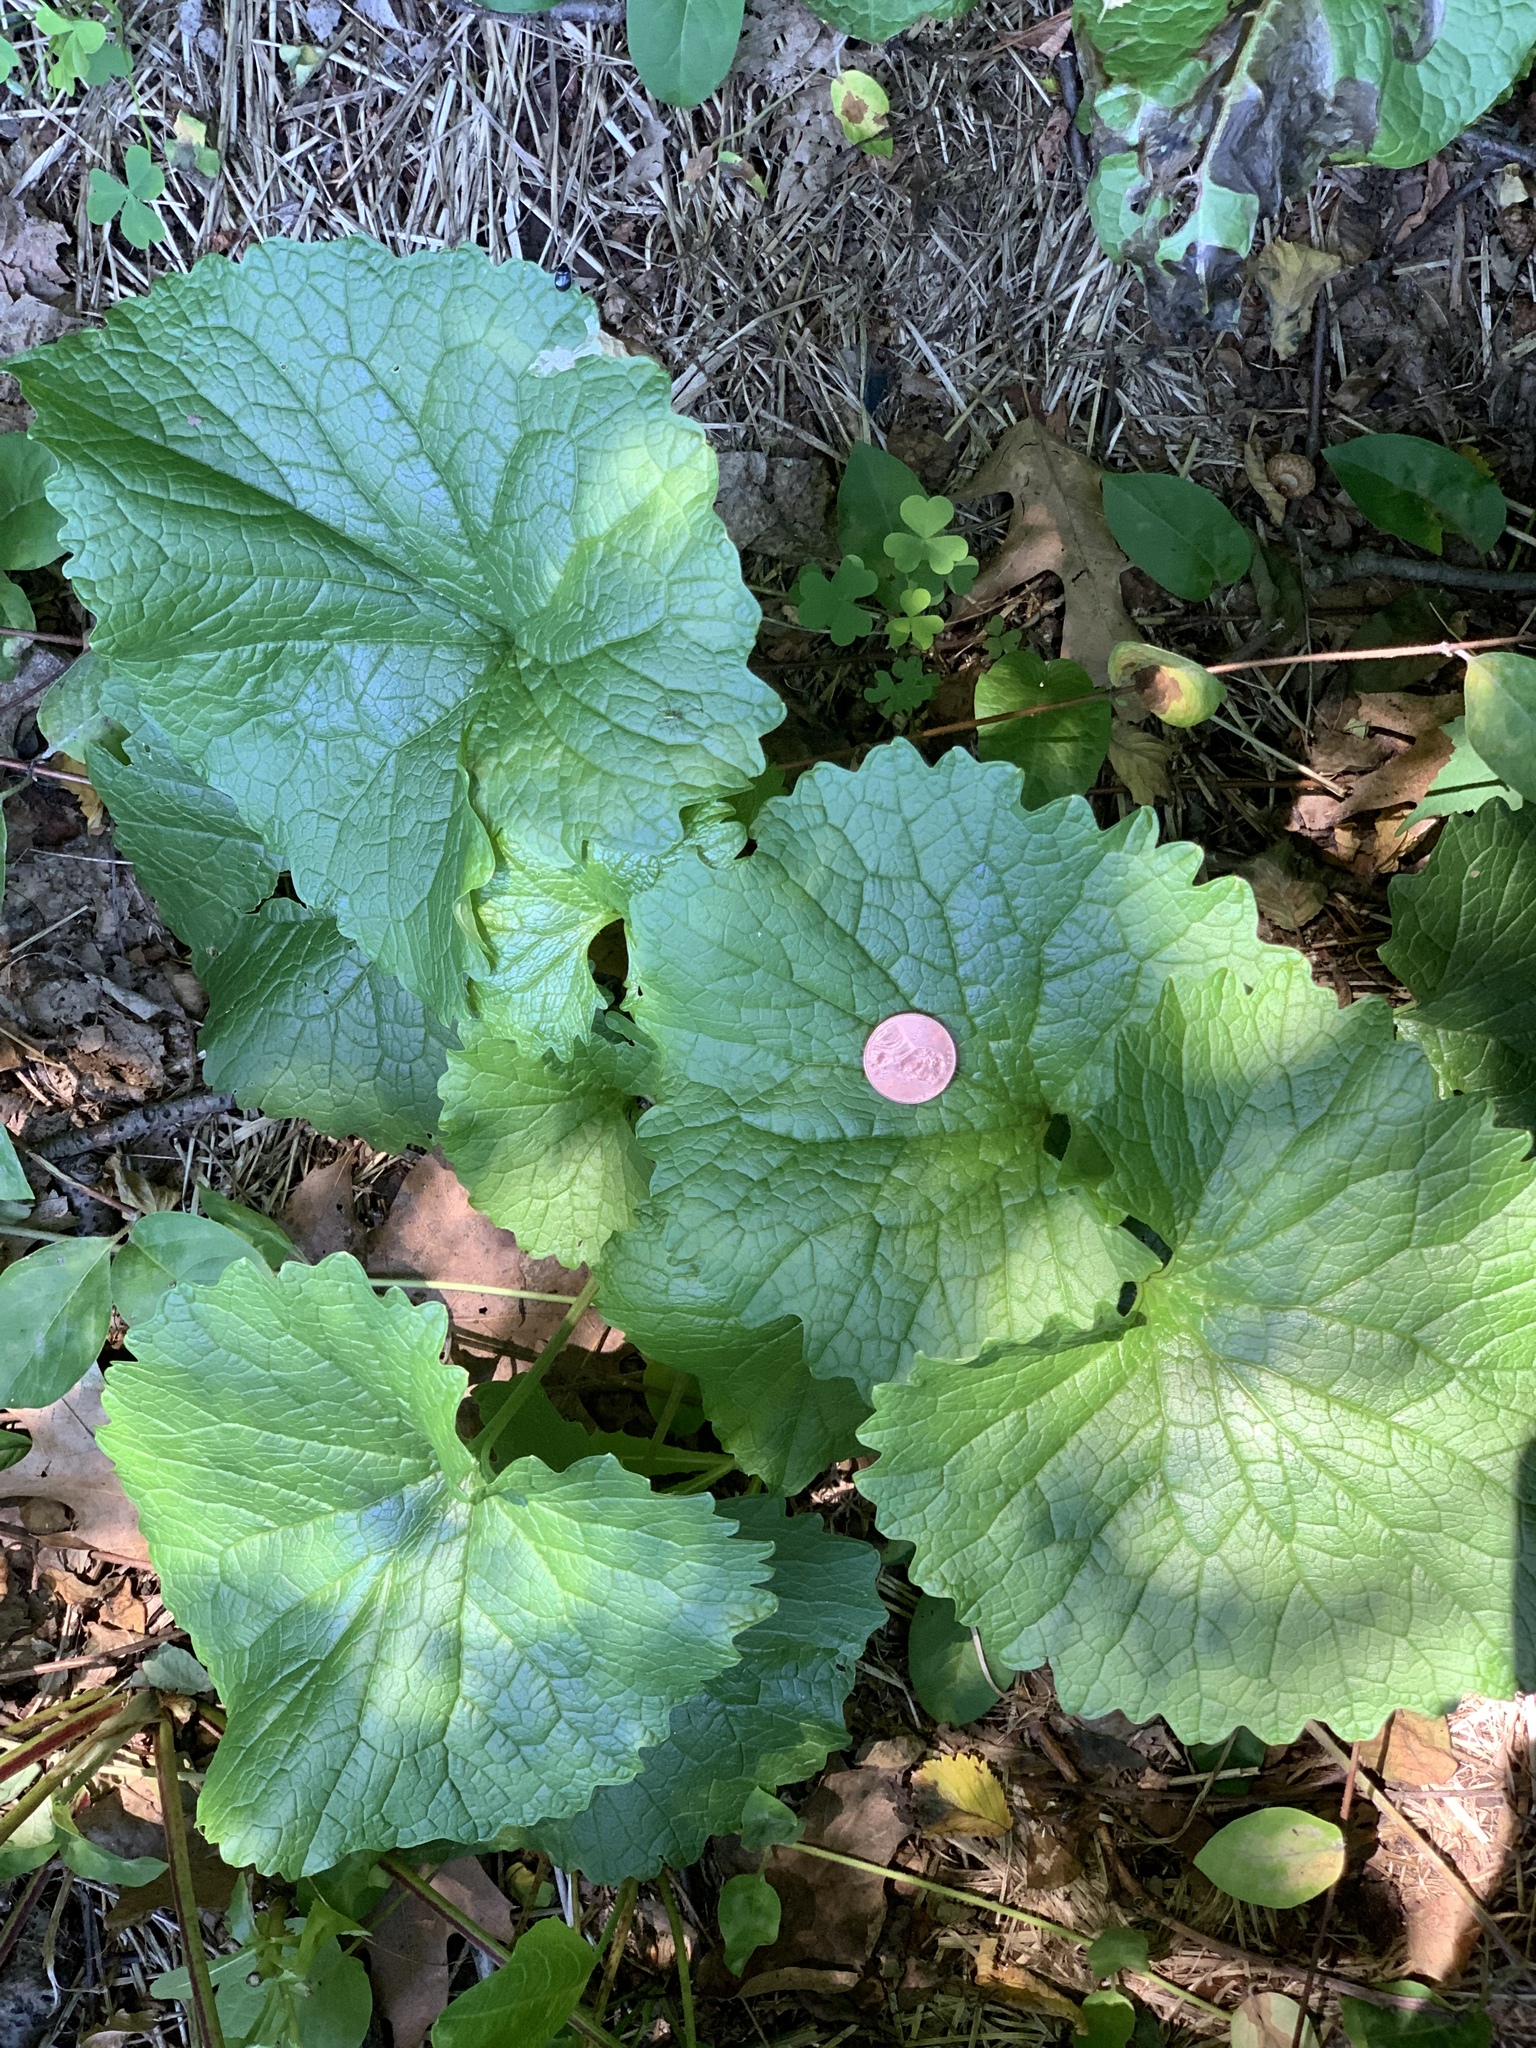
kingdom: Plantae
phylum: Tracheophyta
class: Magnoliopsida
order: Brassicales
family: Brassicaceae
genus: Alliaria
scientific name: Alliaria petiolata
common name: Garlic mustard
